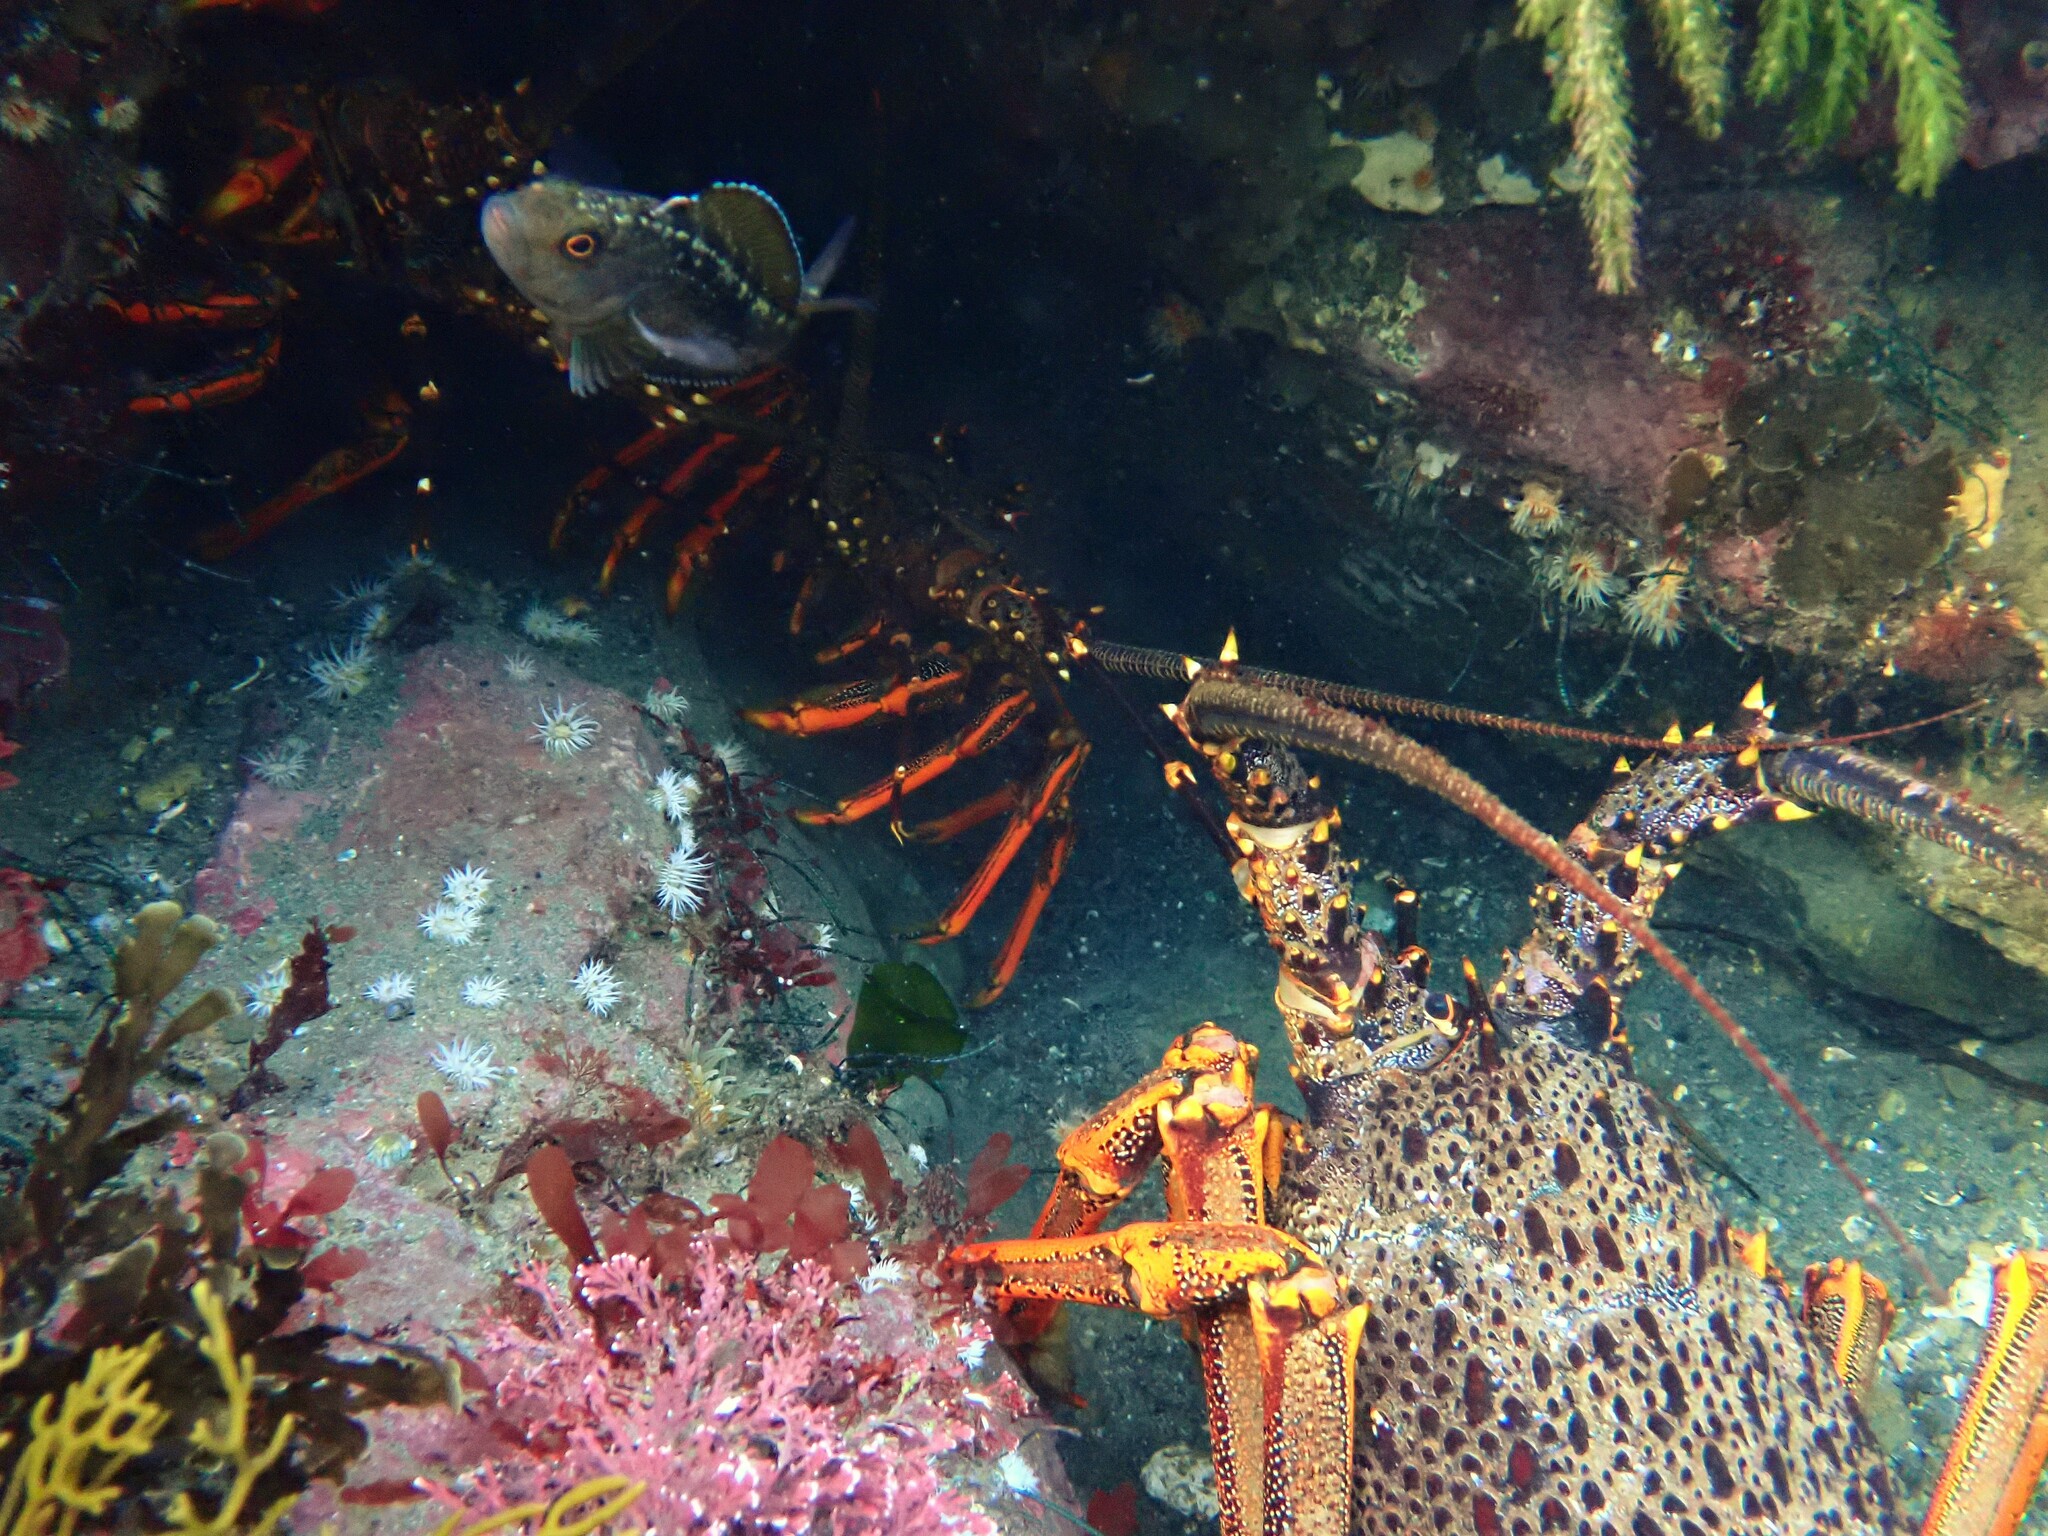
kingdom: Animalia
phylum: Arthropoda
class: Malacostraca
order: Decapoda
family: Palinuridae
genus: Jasus
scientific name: Jasus edwardsii
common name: Red rock lobster
